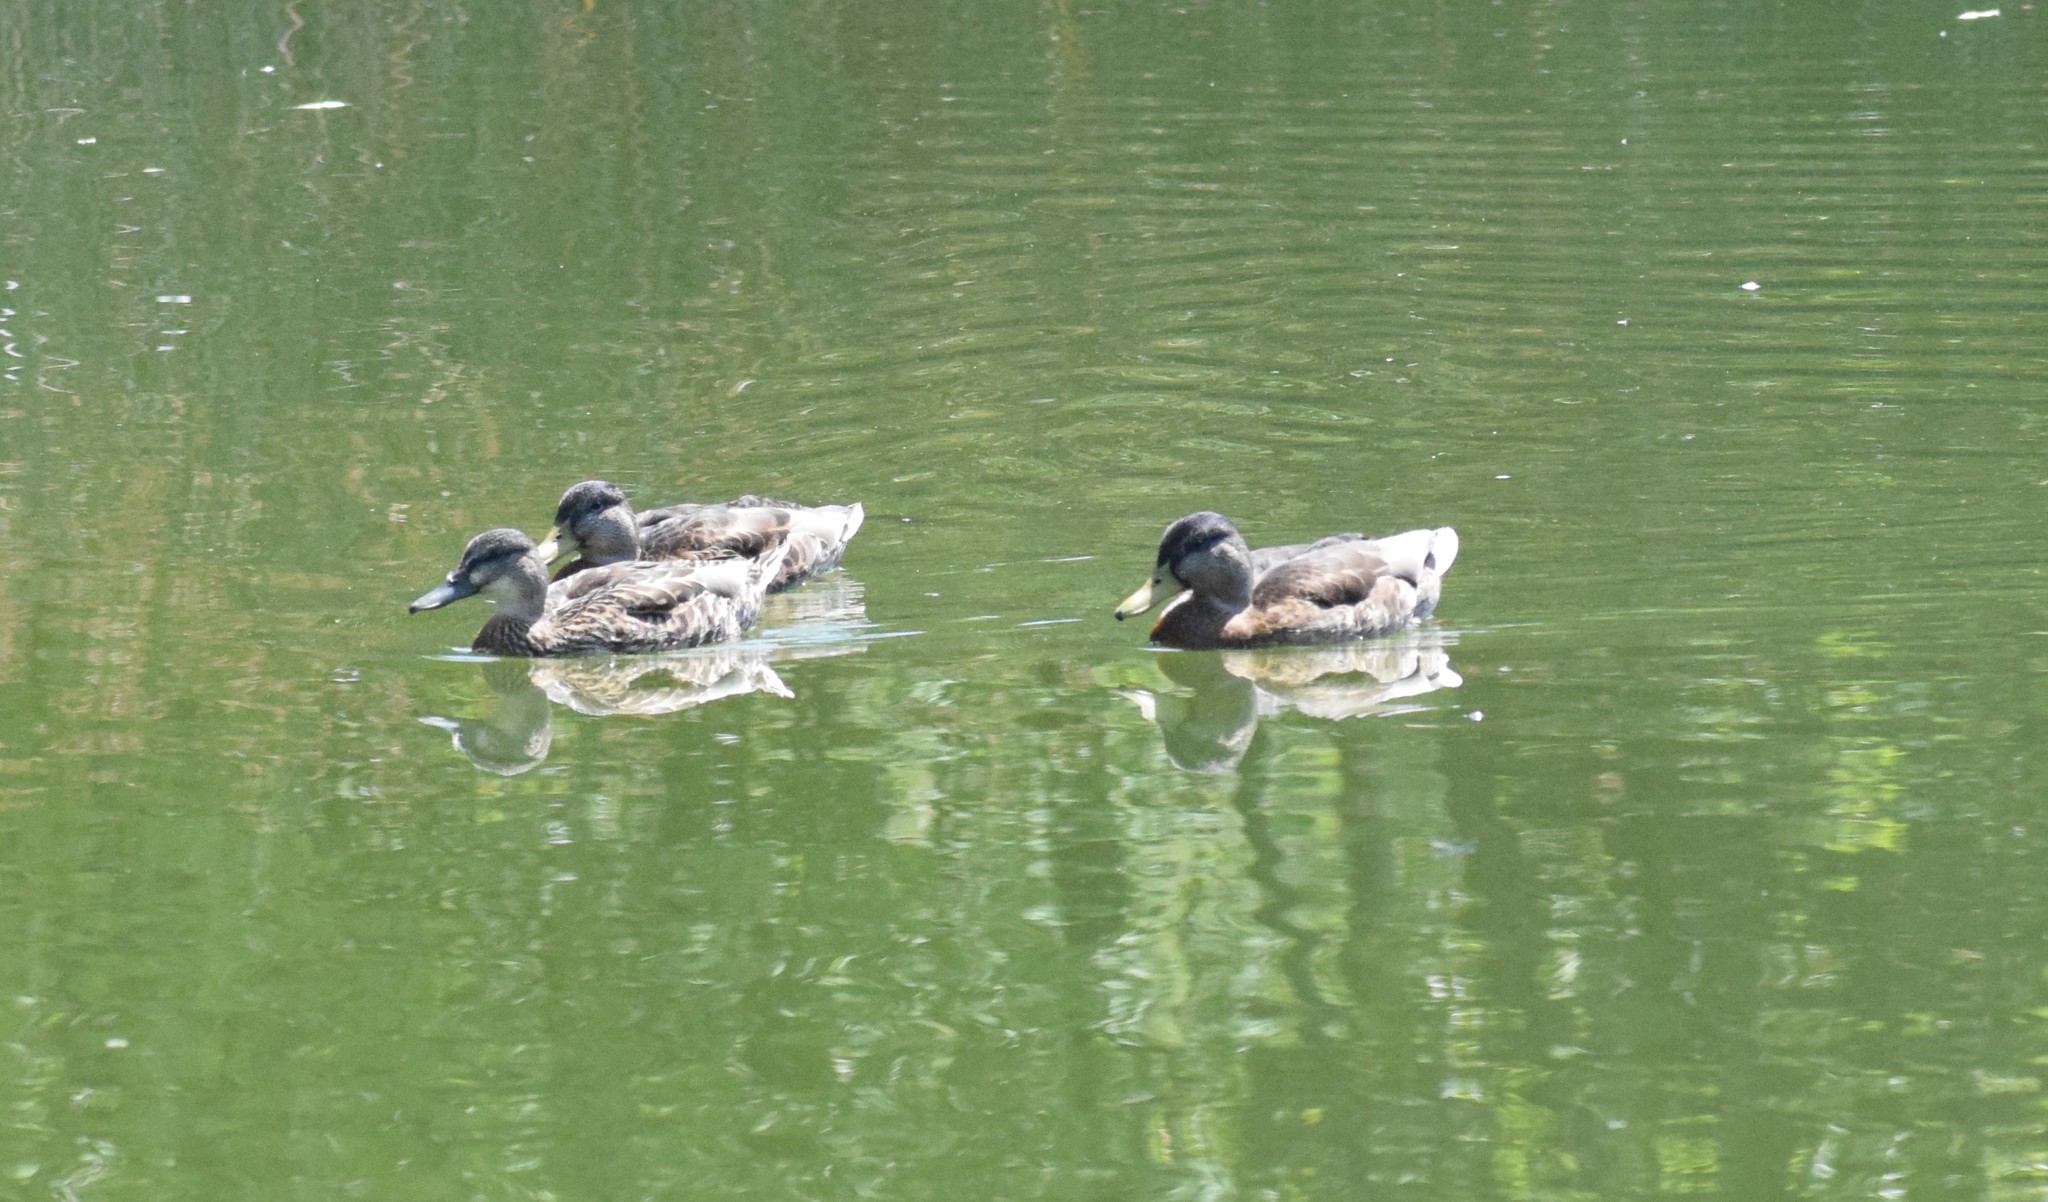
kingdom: Animalia
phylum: Chordata
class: Aves
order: Anseriformes
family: Anatidae
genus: Anas
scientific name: Anas platyrhynchos
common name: Mallard
